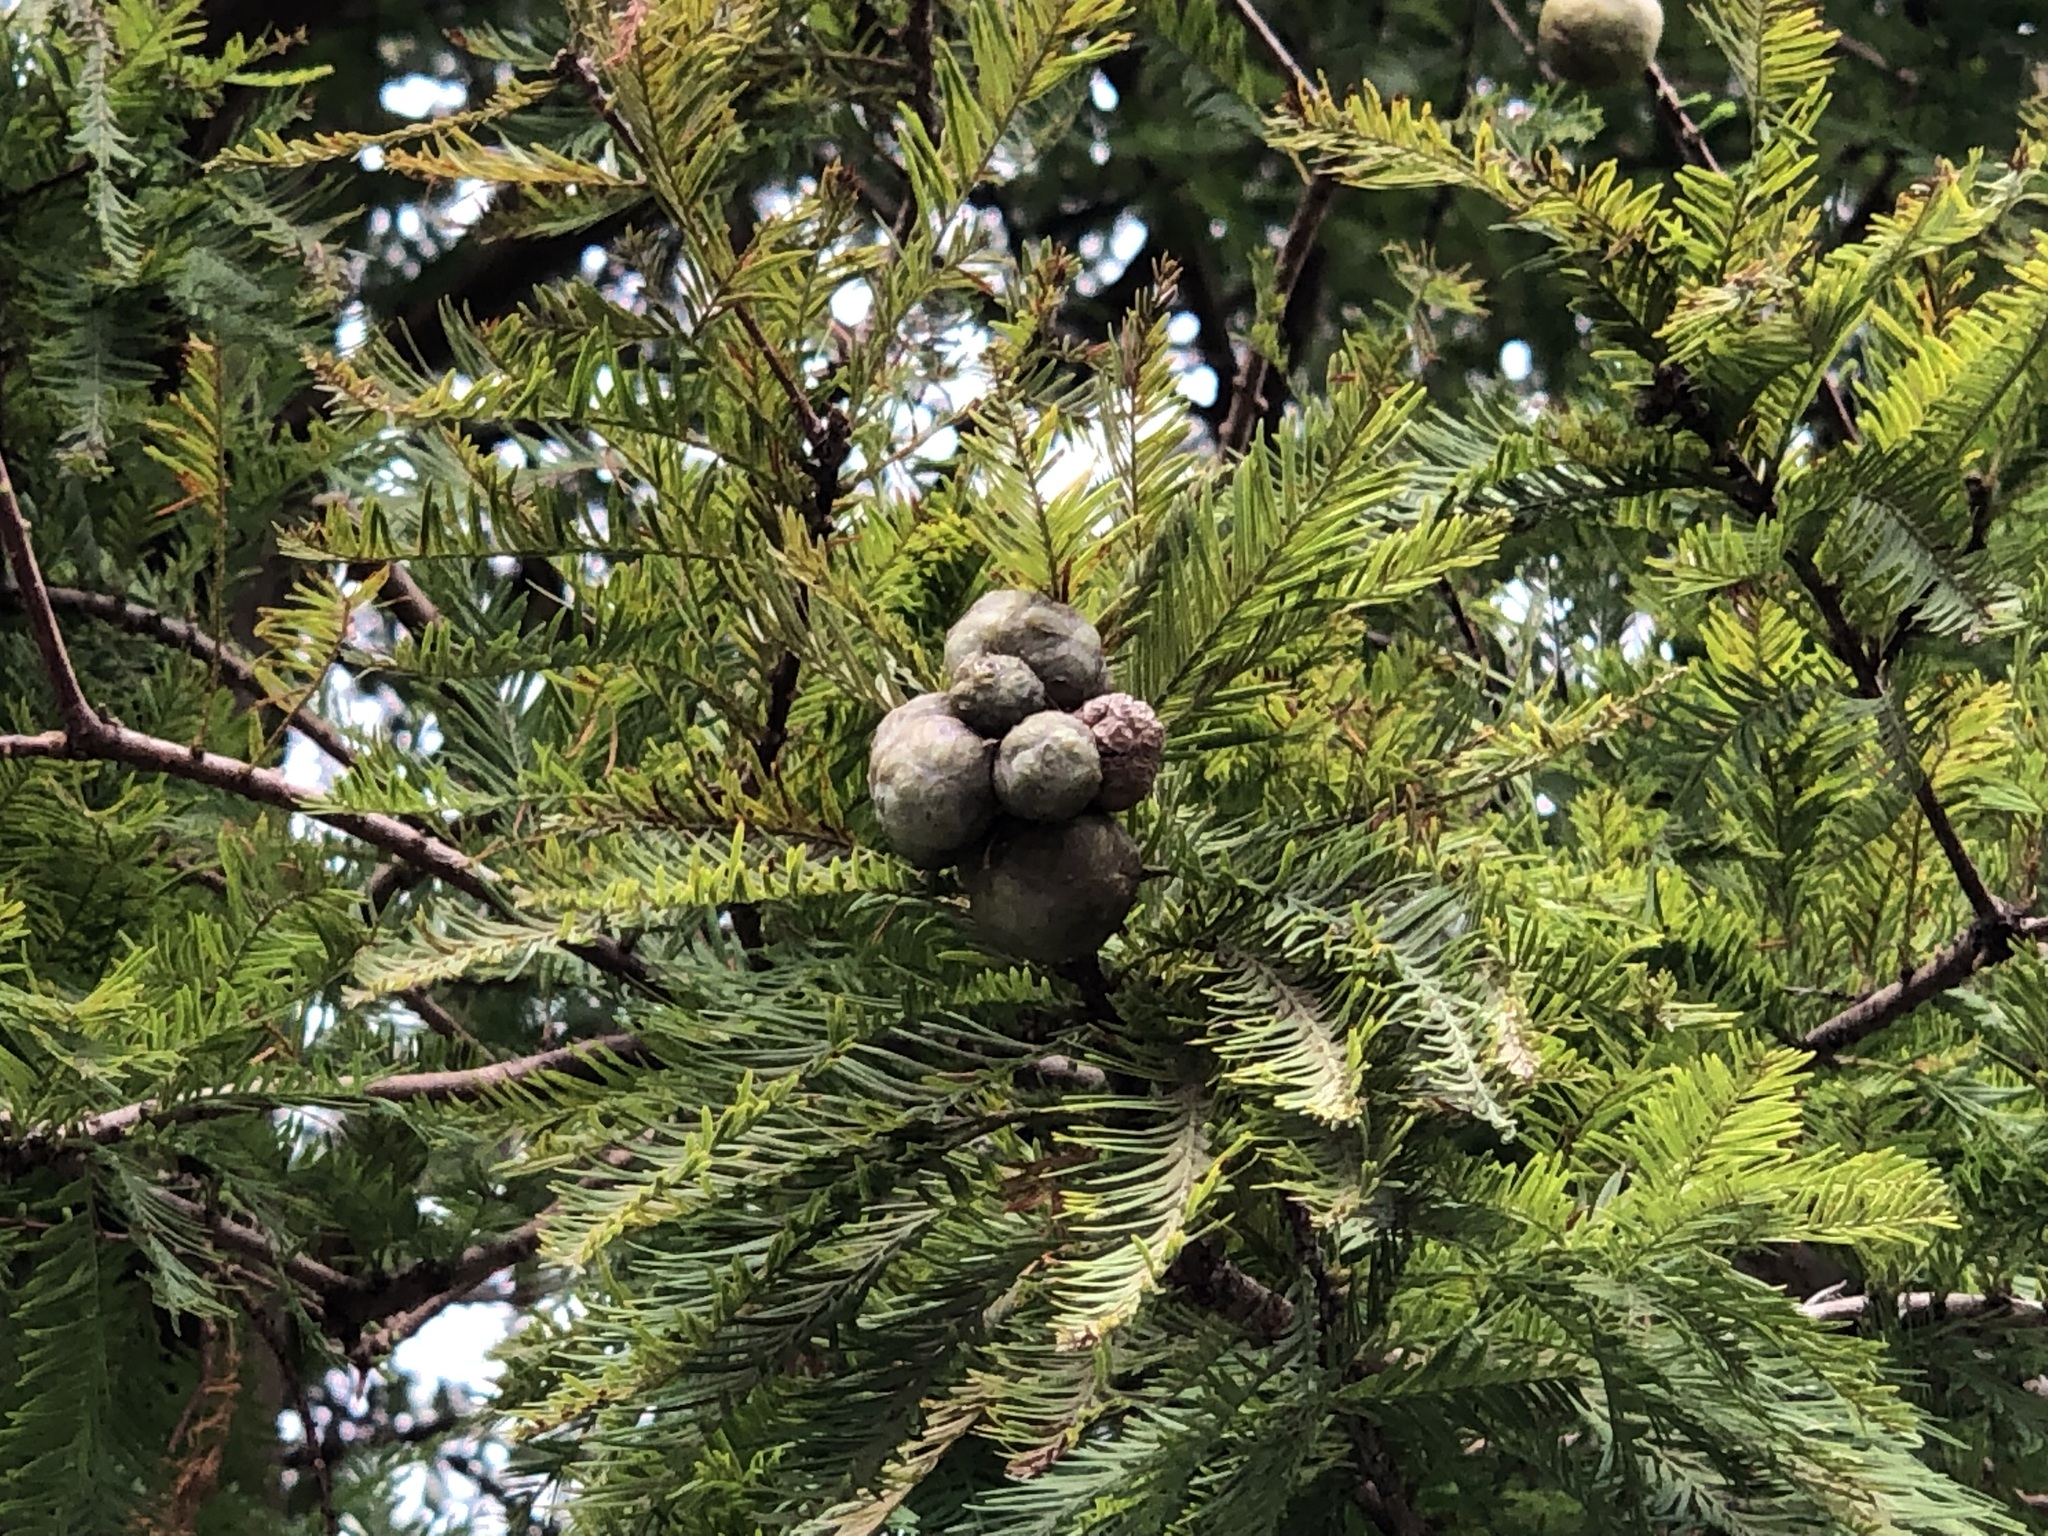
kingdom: Plantae
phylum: Tracheophyta
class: Pinopsida
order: Pinales
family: Cupressaceae
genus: Taxodium
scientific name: Taxodium distichum
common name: Bald cypress
